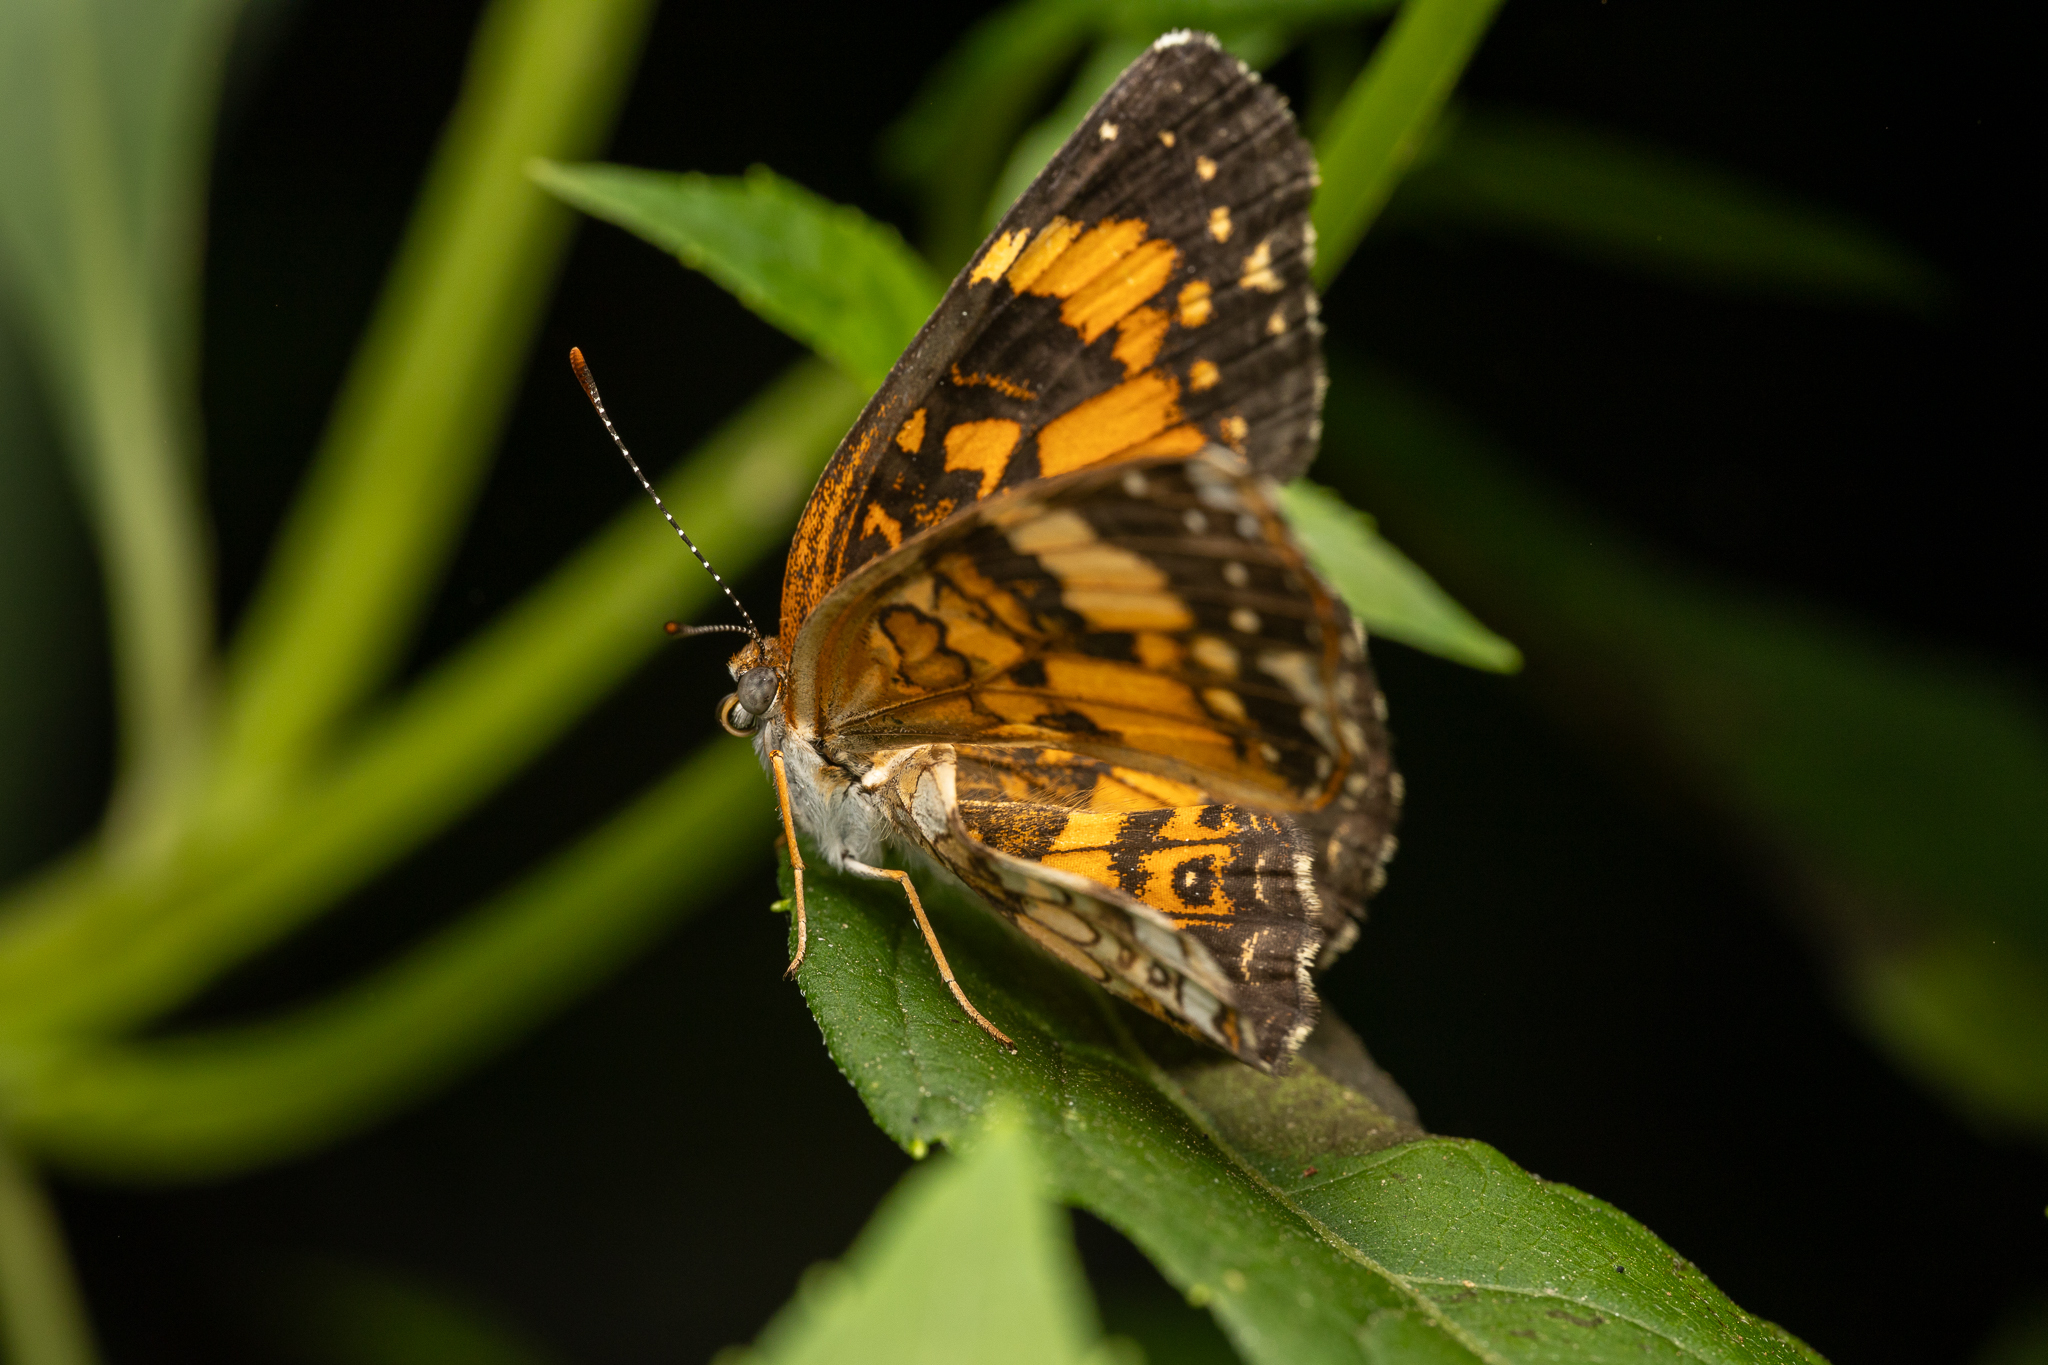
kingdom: Animalia
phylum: Arthropoda
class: Insecta
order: Lepidoptera
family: Nymphalidae
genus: Chlosyne
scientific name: Chlosyne nycteis
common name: Silvery checkerspot
